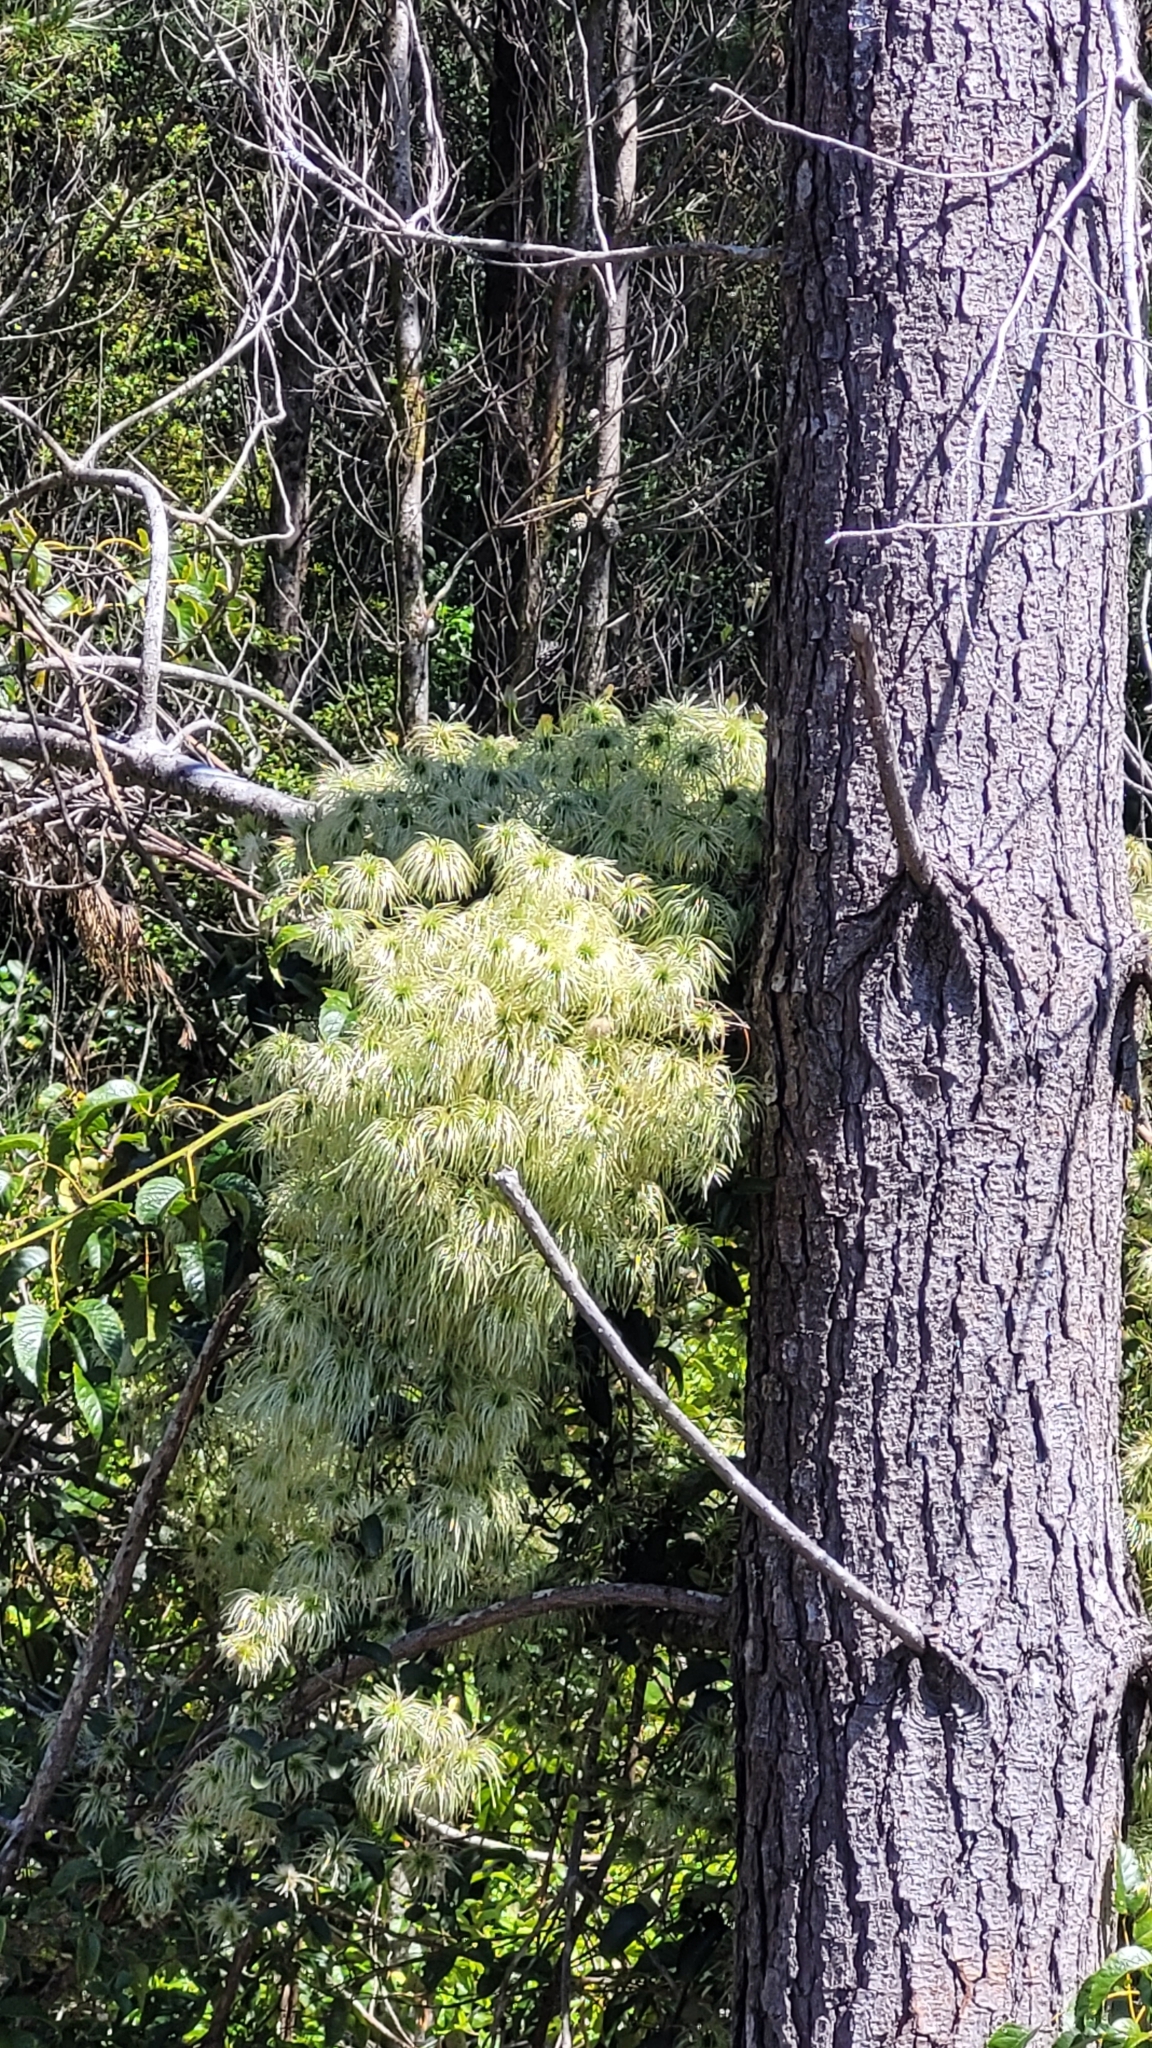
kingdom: Plantae
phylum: Tracheophyta
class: Magnoliopsida
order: Ranunculales
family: Ranunculaceae
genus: Clematis
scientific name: Clematis paniculata
